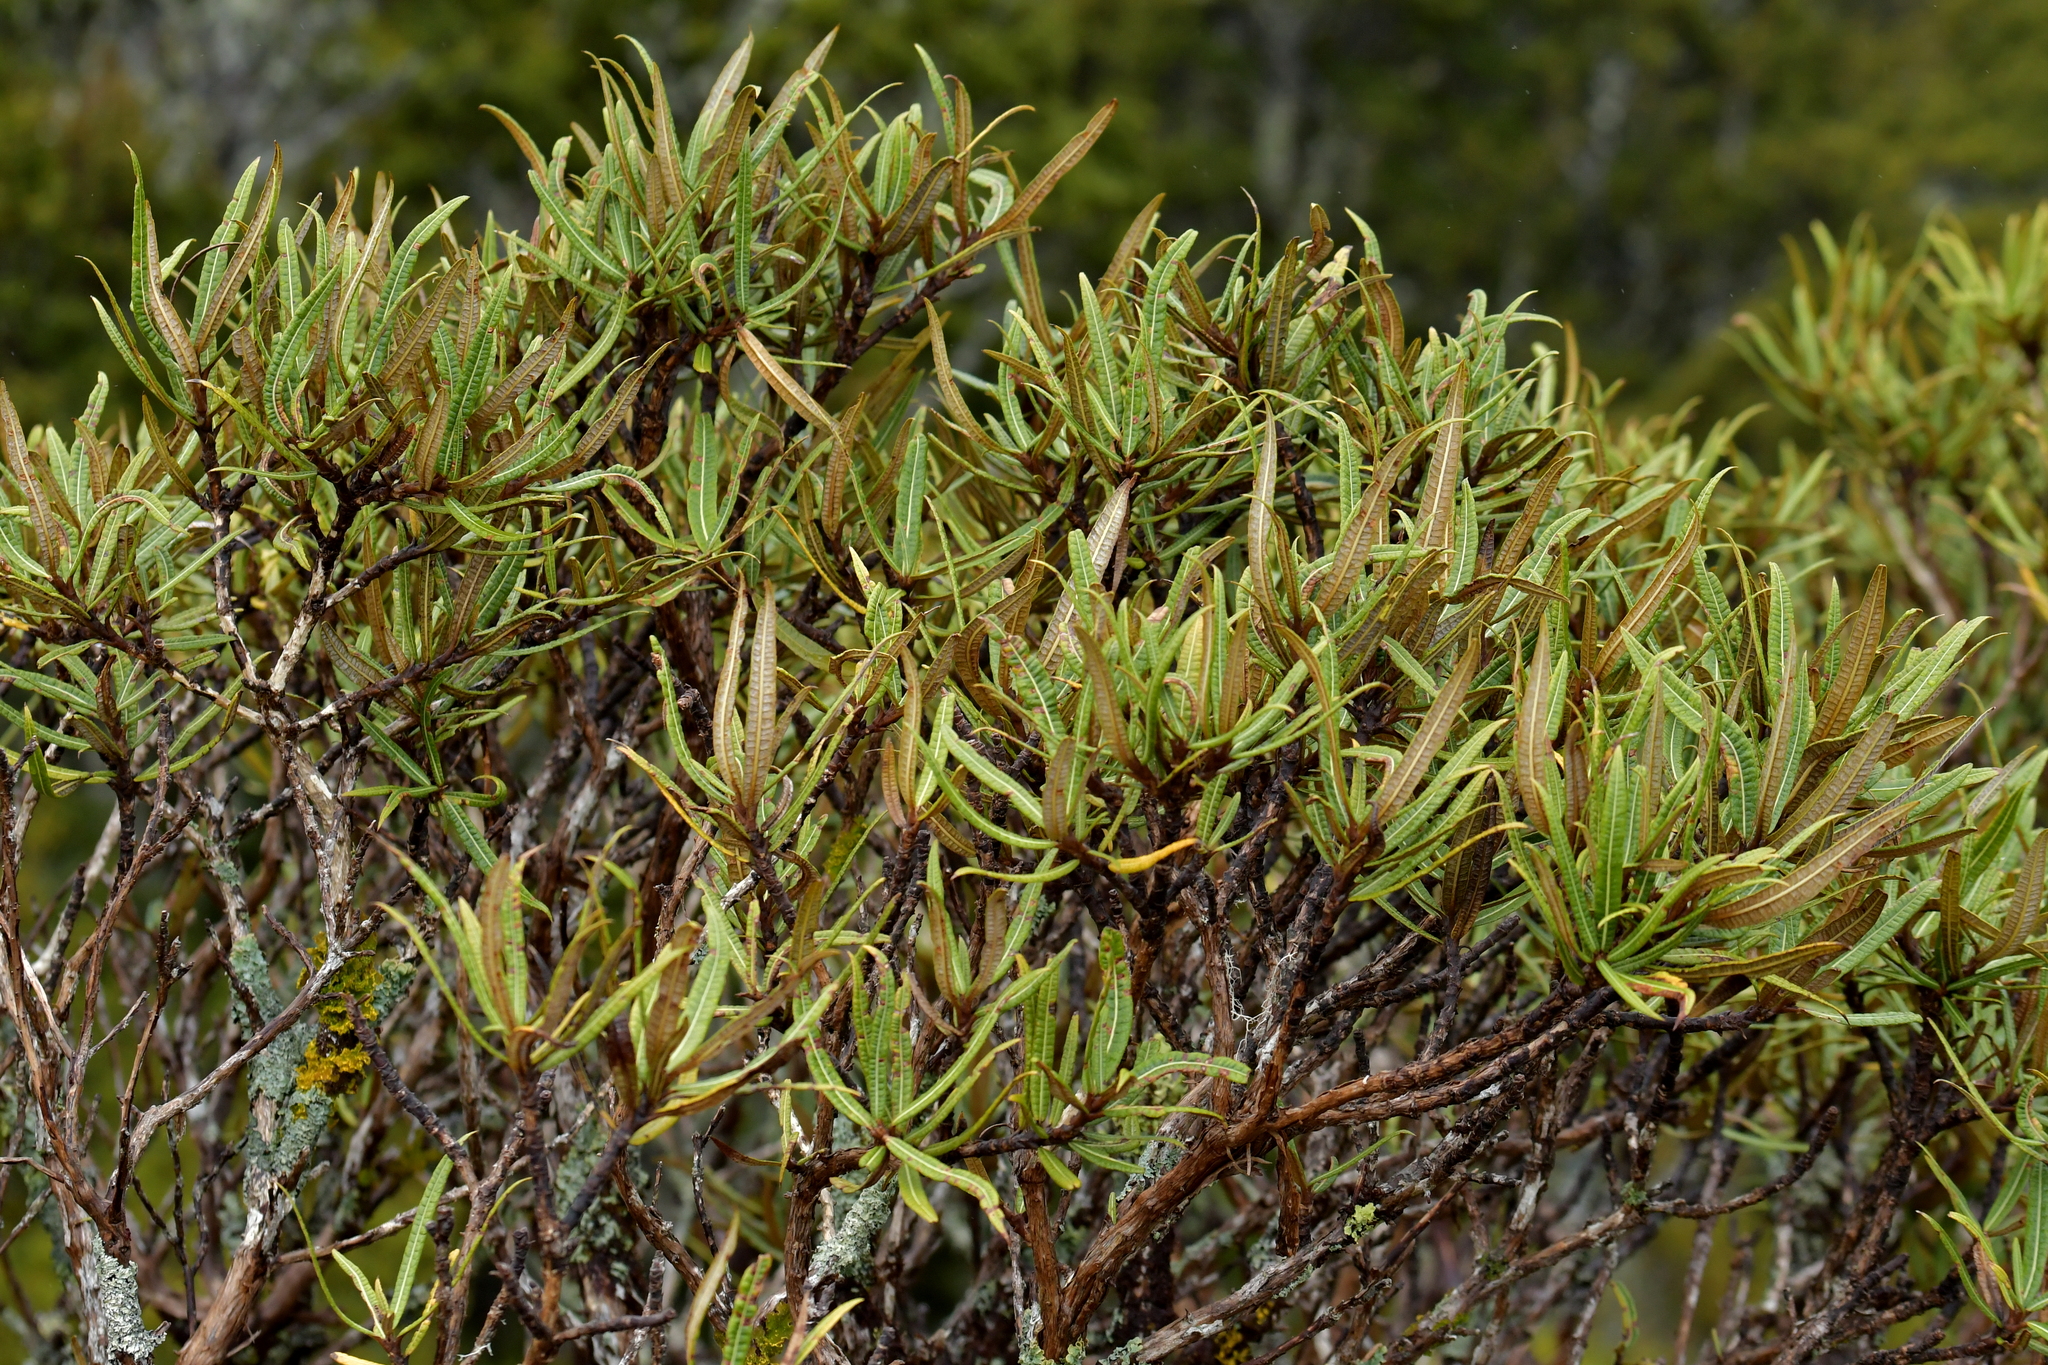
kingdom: Plantae
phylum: Tracheophyta
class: Magnoliopsida
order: Asterales
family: Asteraceae
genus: Olearia
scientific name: Olearia lacunosa
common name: Lancewood tree daisy
